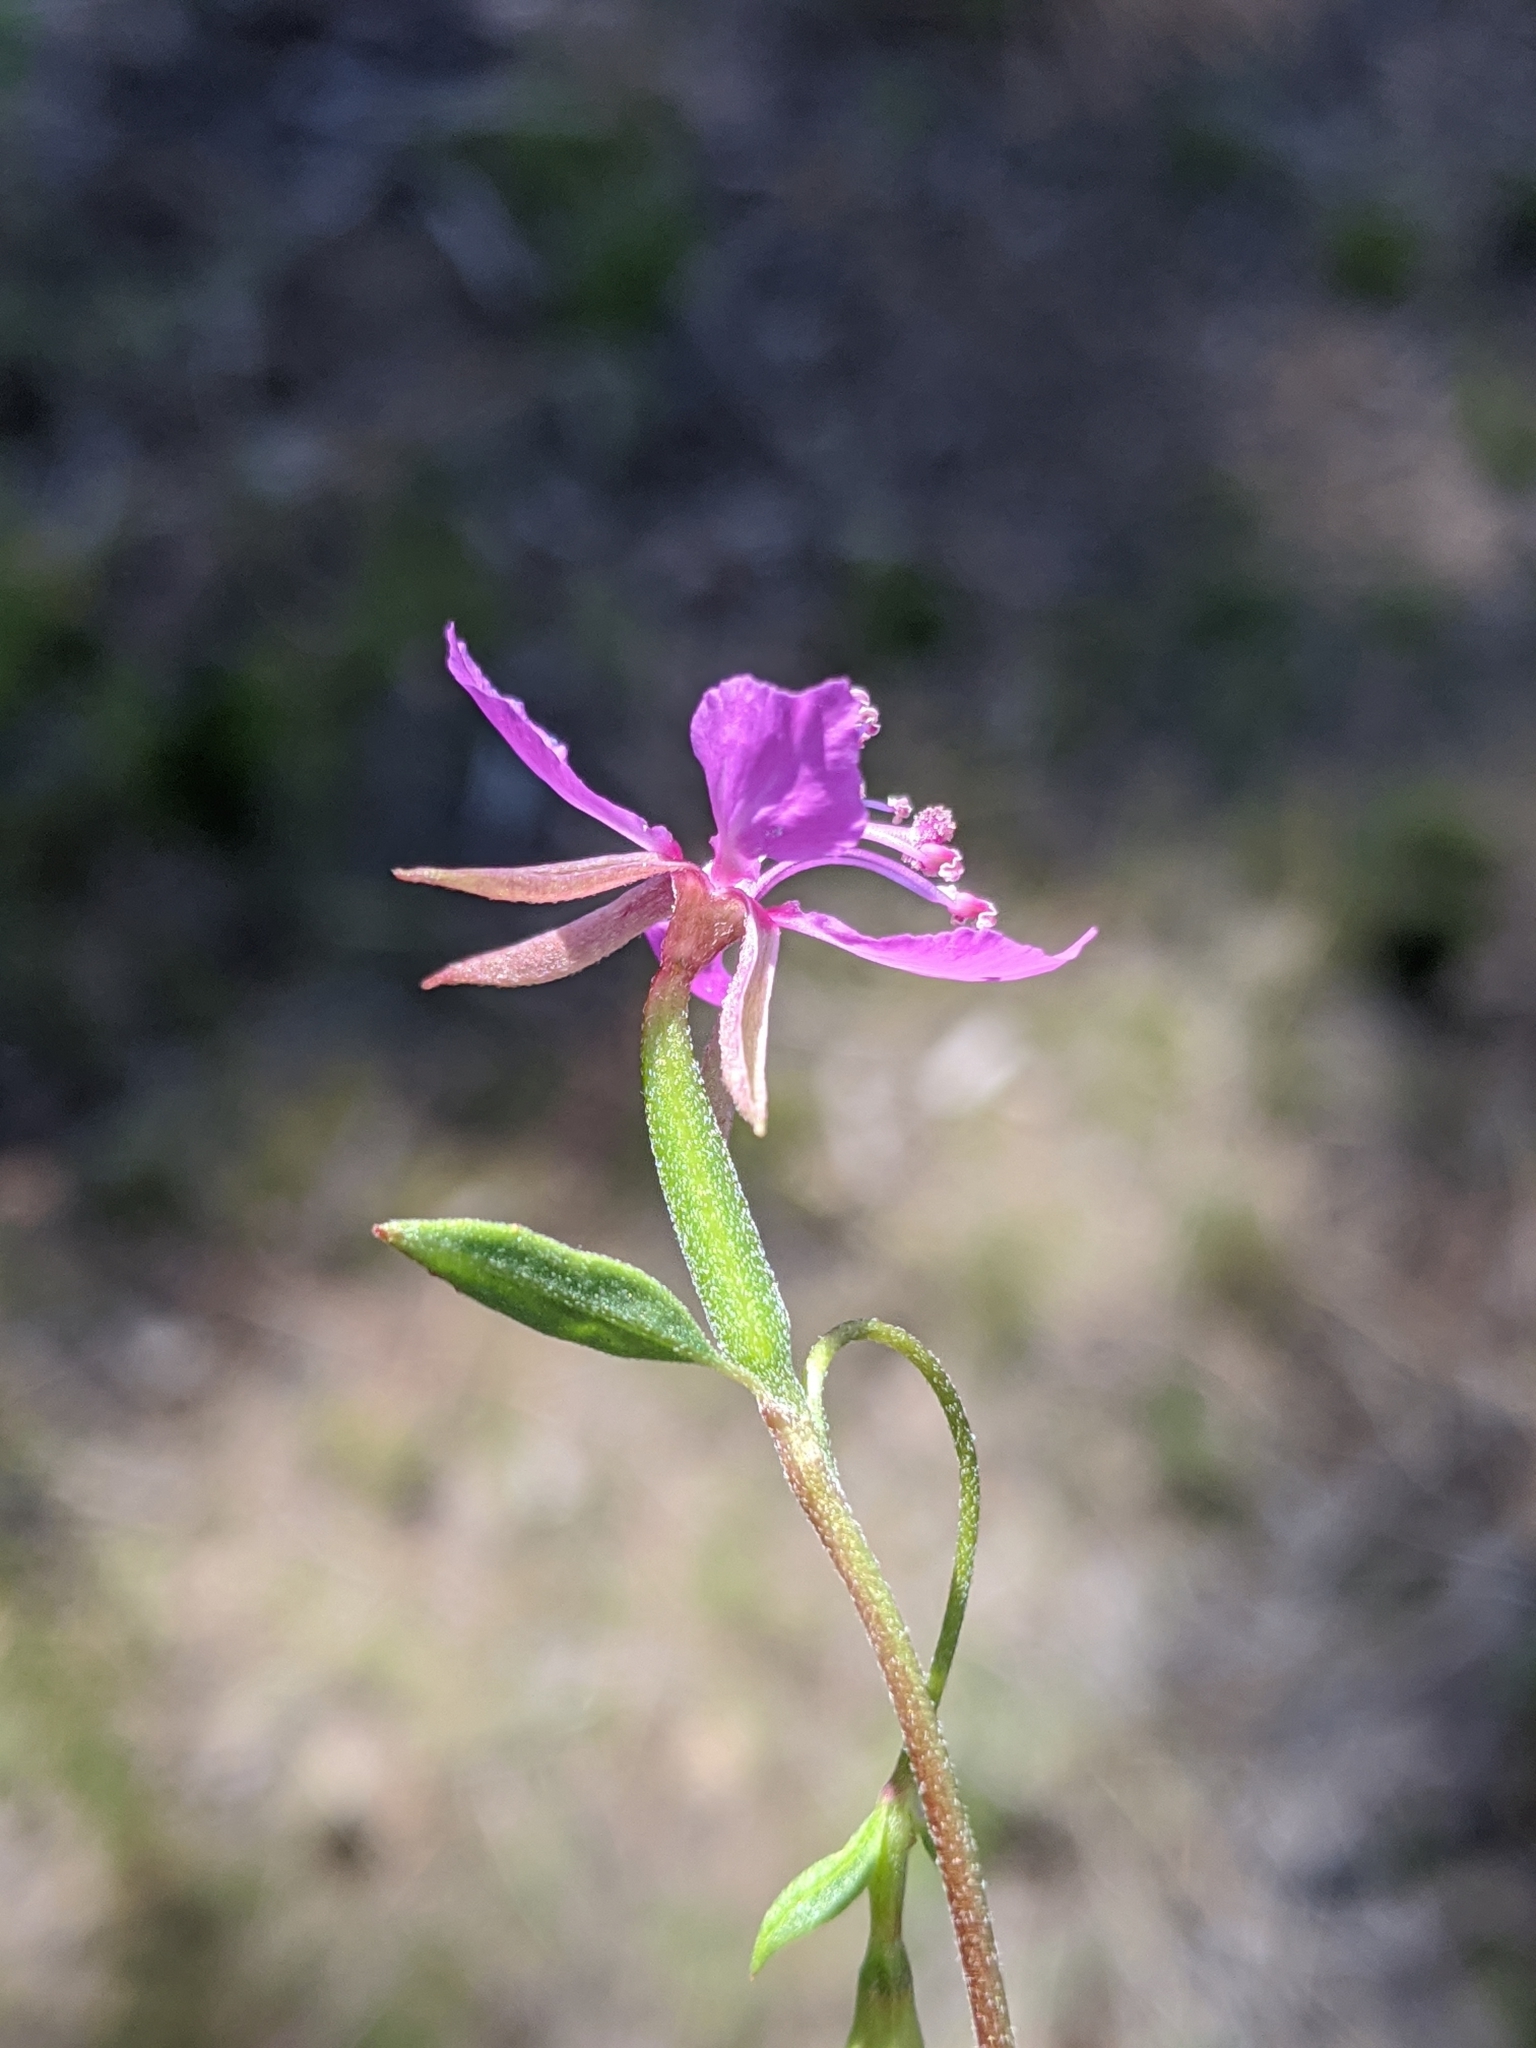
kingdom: Plantae
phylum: Tracheophyta
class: Magnoliopsida
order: Myrtales
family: Onagraceae
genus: Clarkia
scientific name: Clarkia rhomboidea
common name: Broadleaf clarkia
